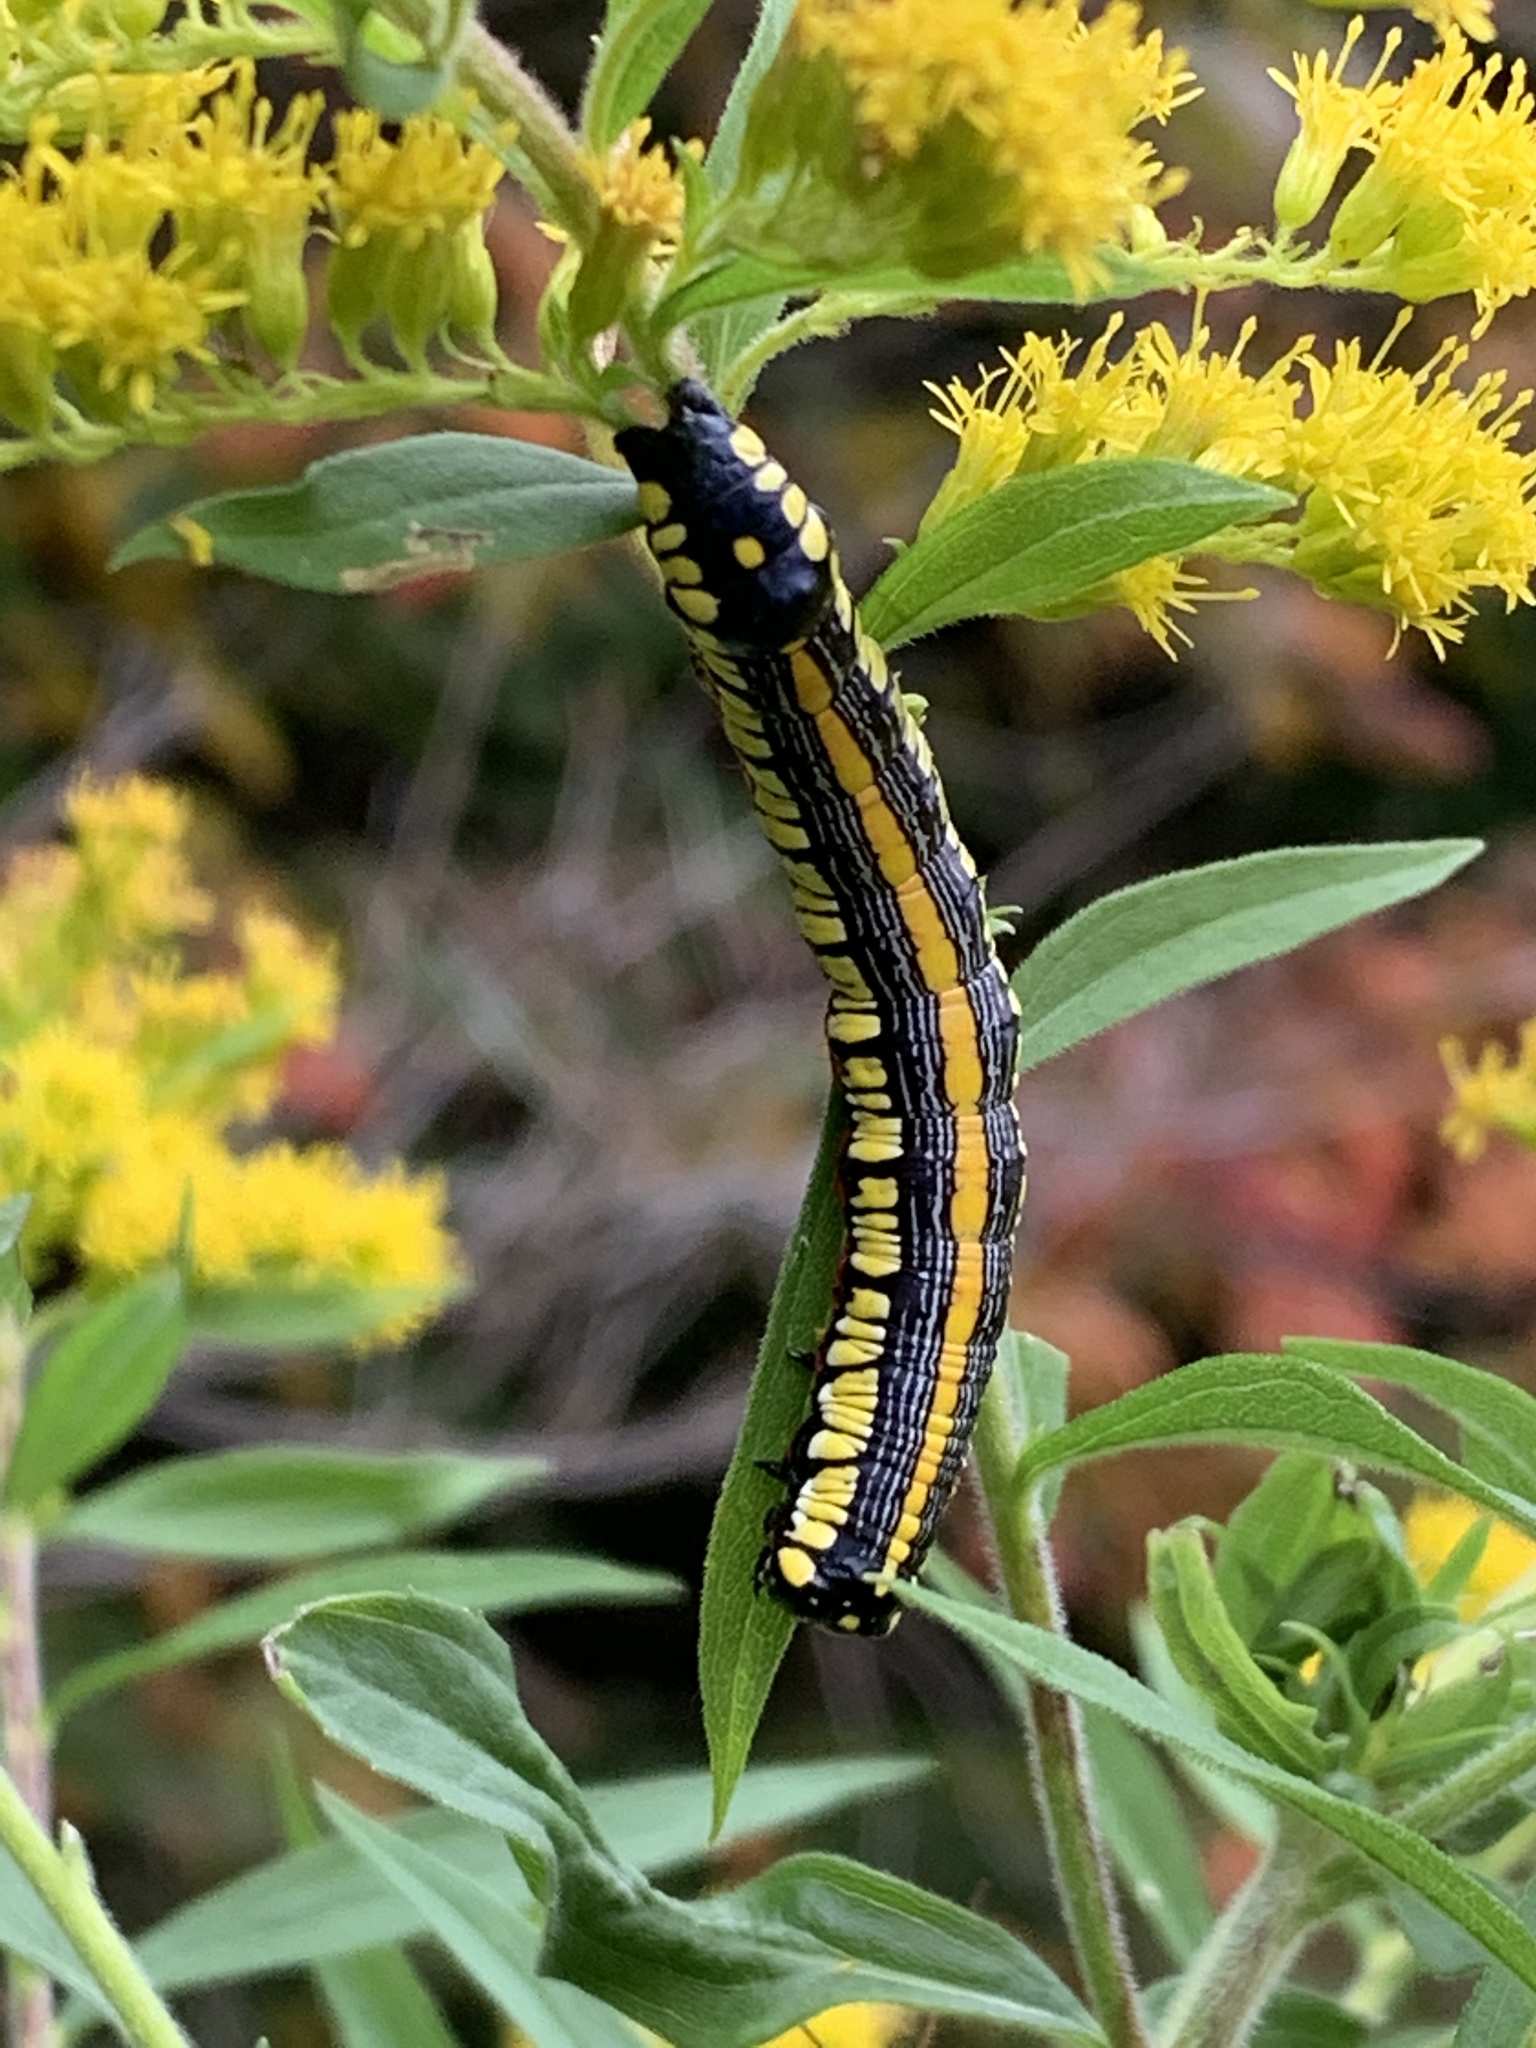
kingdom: Animalia
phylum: Arthropoda
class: Insecta
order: Lepidoptera
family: Noctuidae
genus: Cucullia
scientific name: Cucullia convexipennis
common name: Brown-hooded owlet
